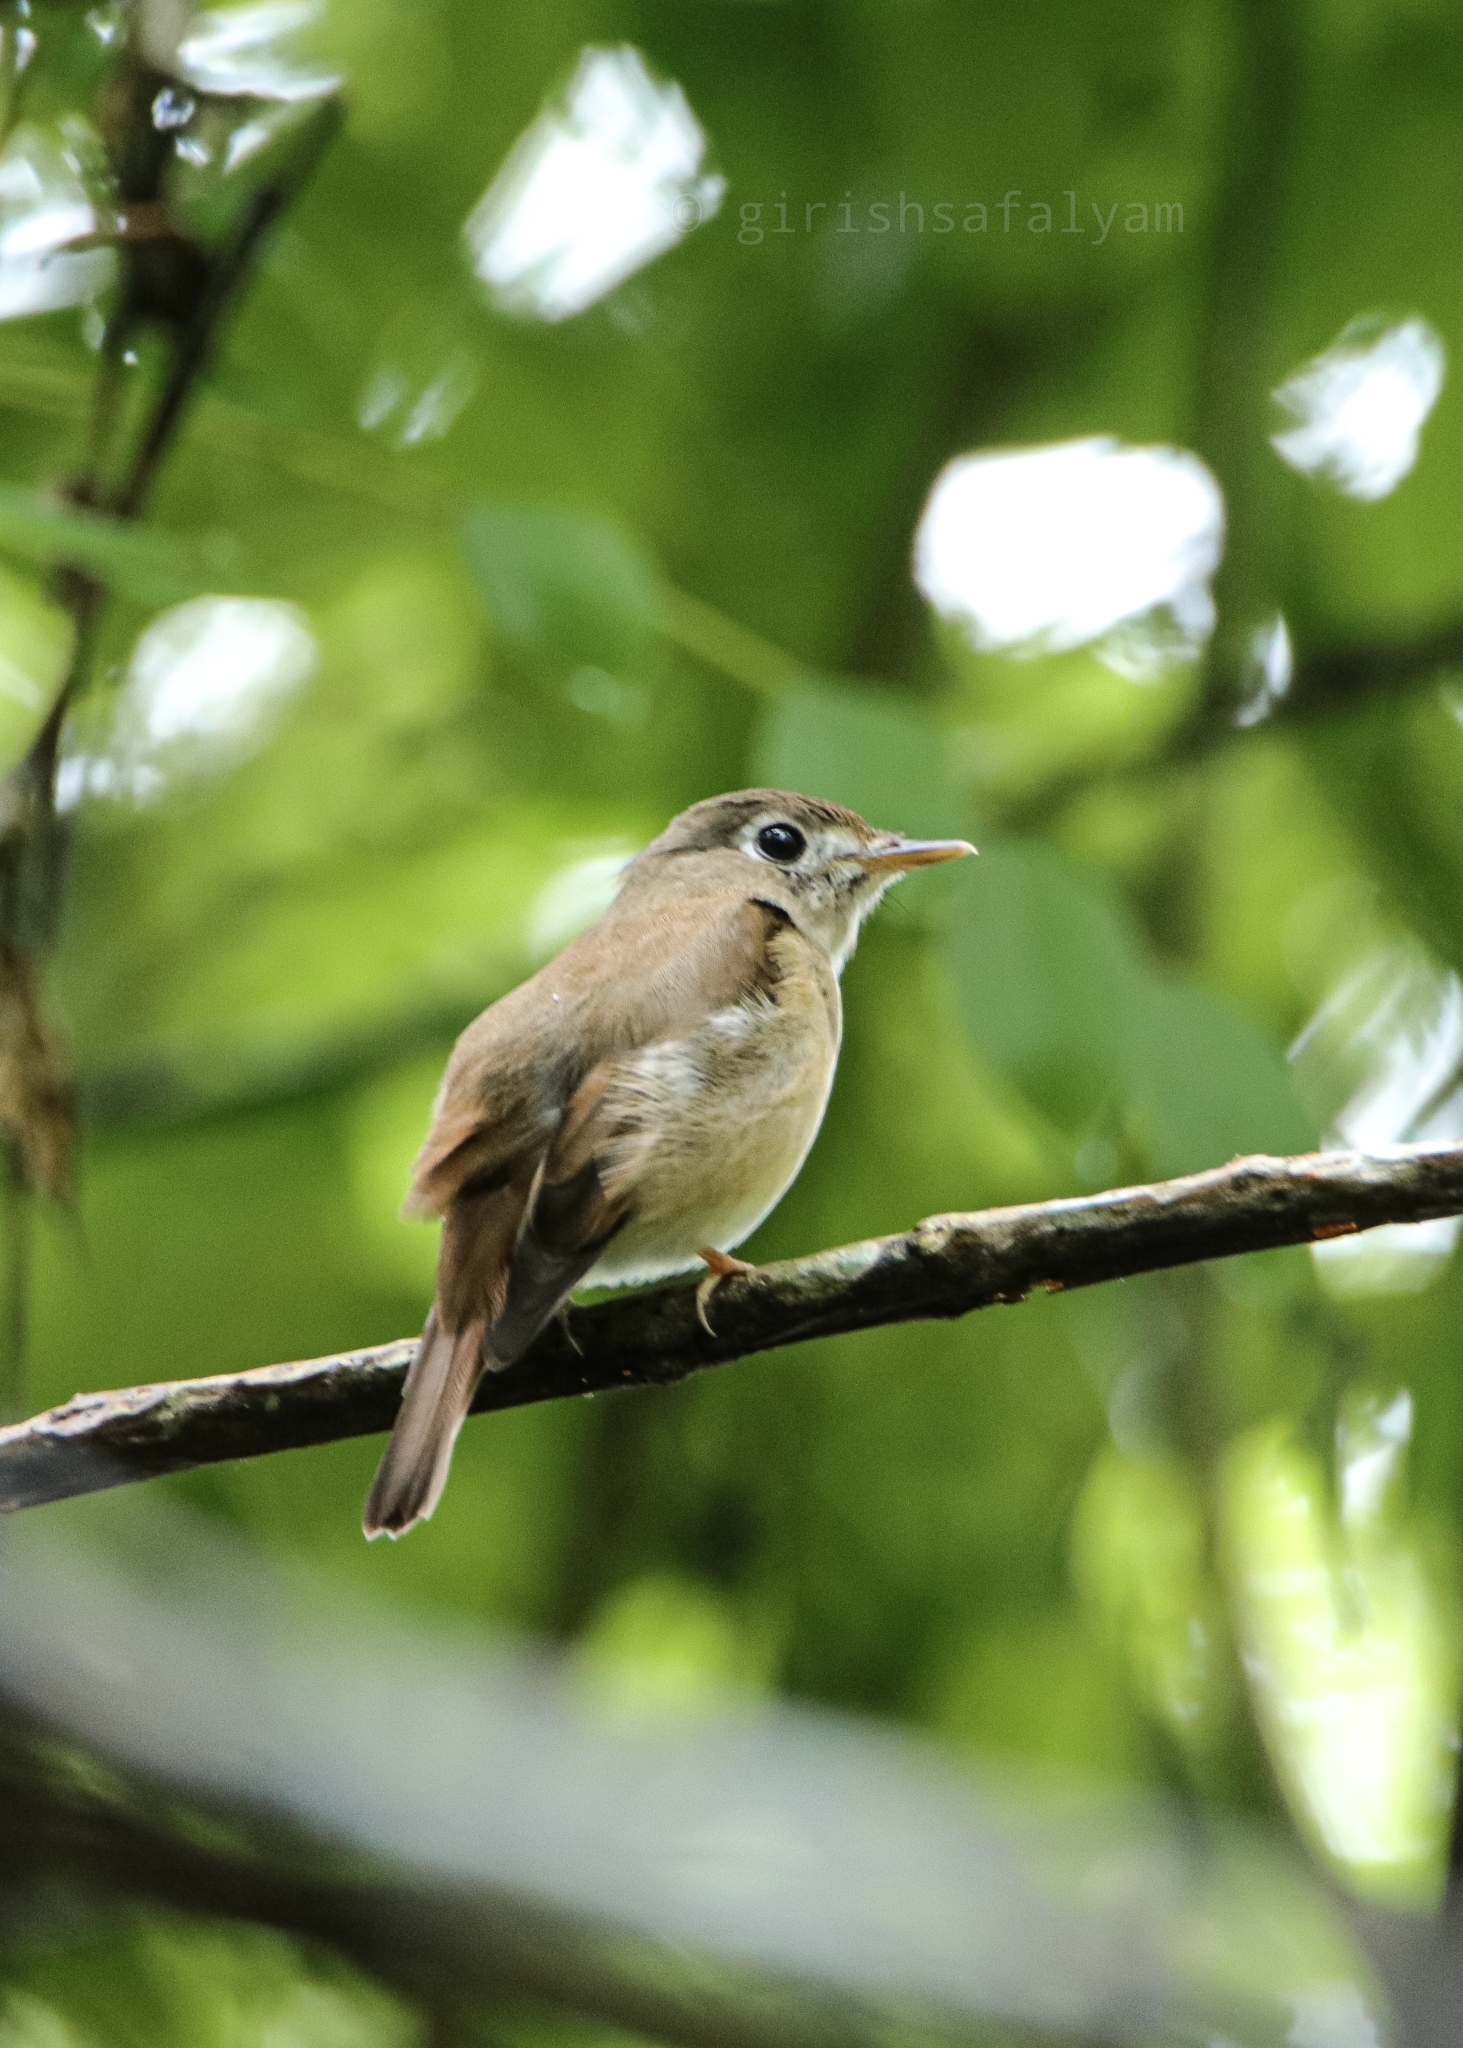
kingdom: Animalia
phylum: Chordata
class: Aves
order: Passeriformes
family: Muscicapidae
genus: Muscicapa
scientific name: Muscicapa muttui
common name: Brown-breasted flycatcher
